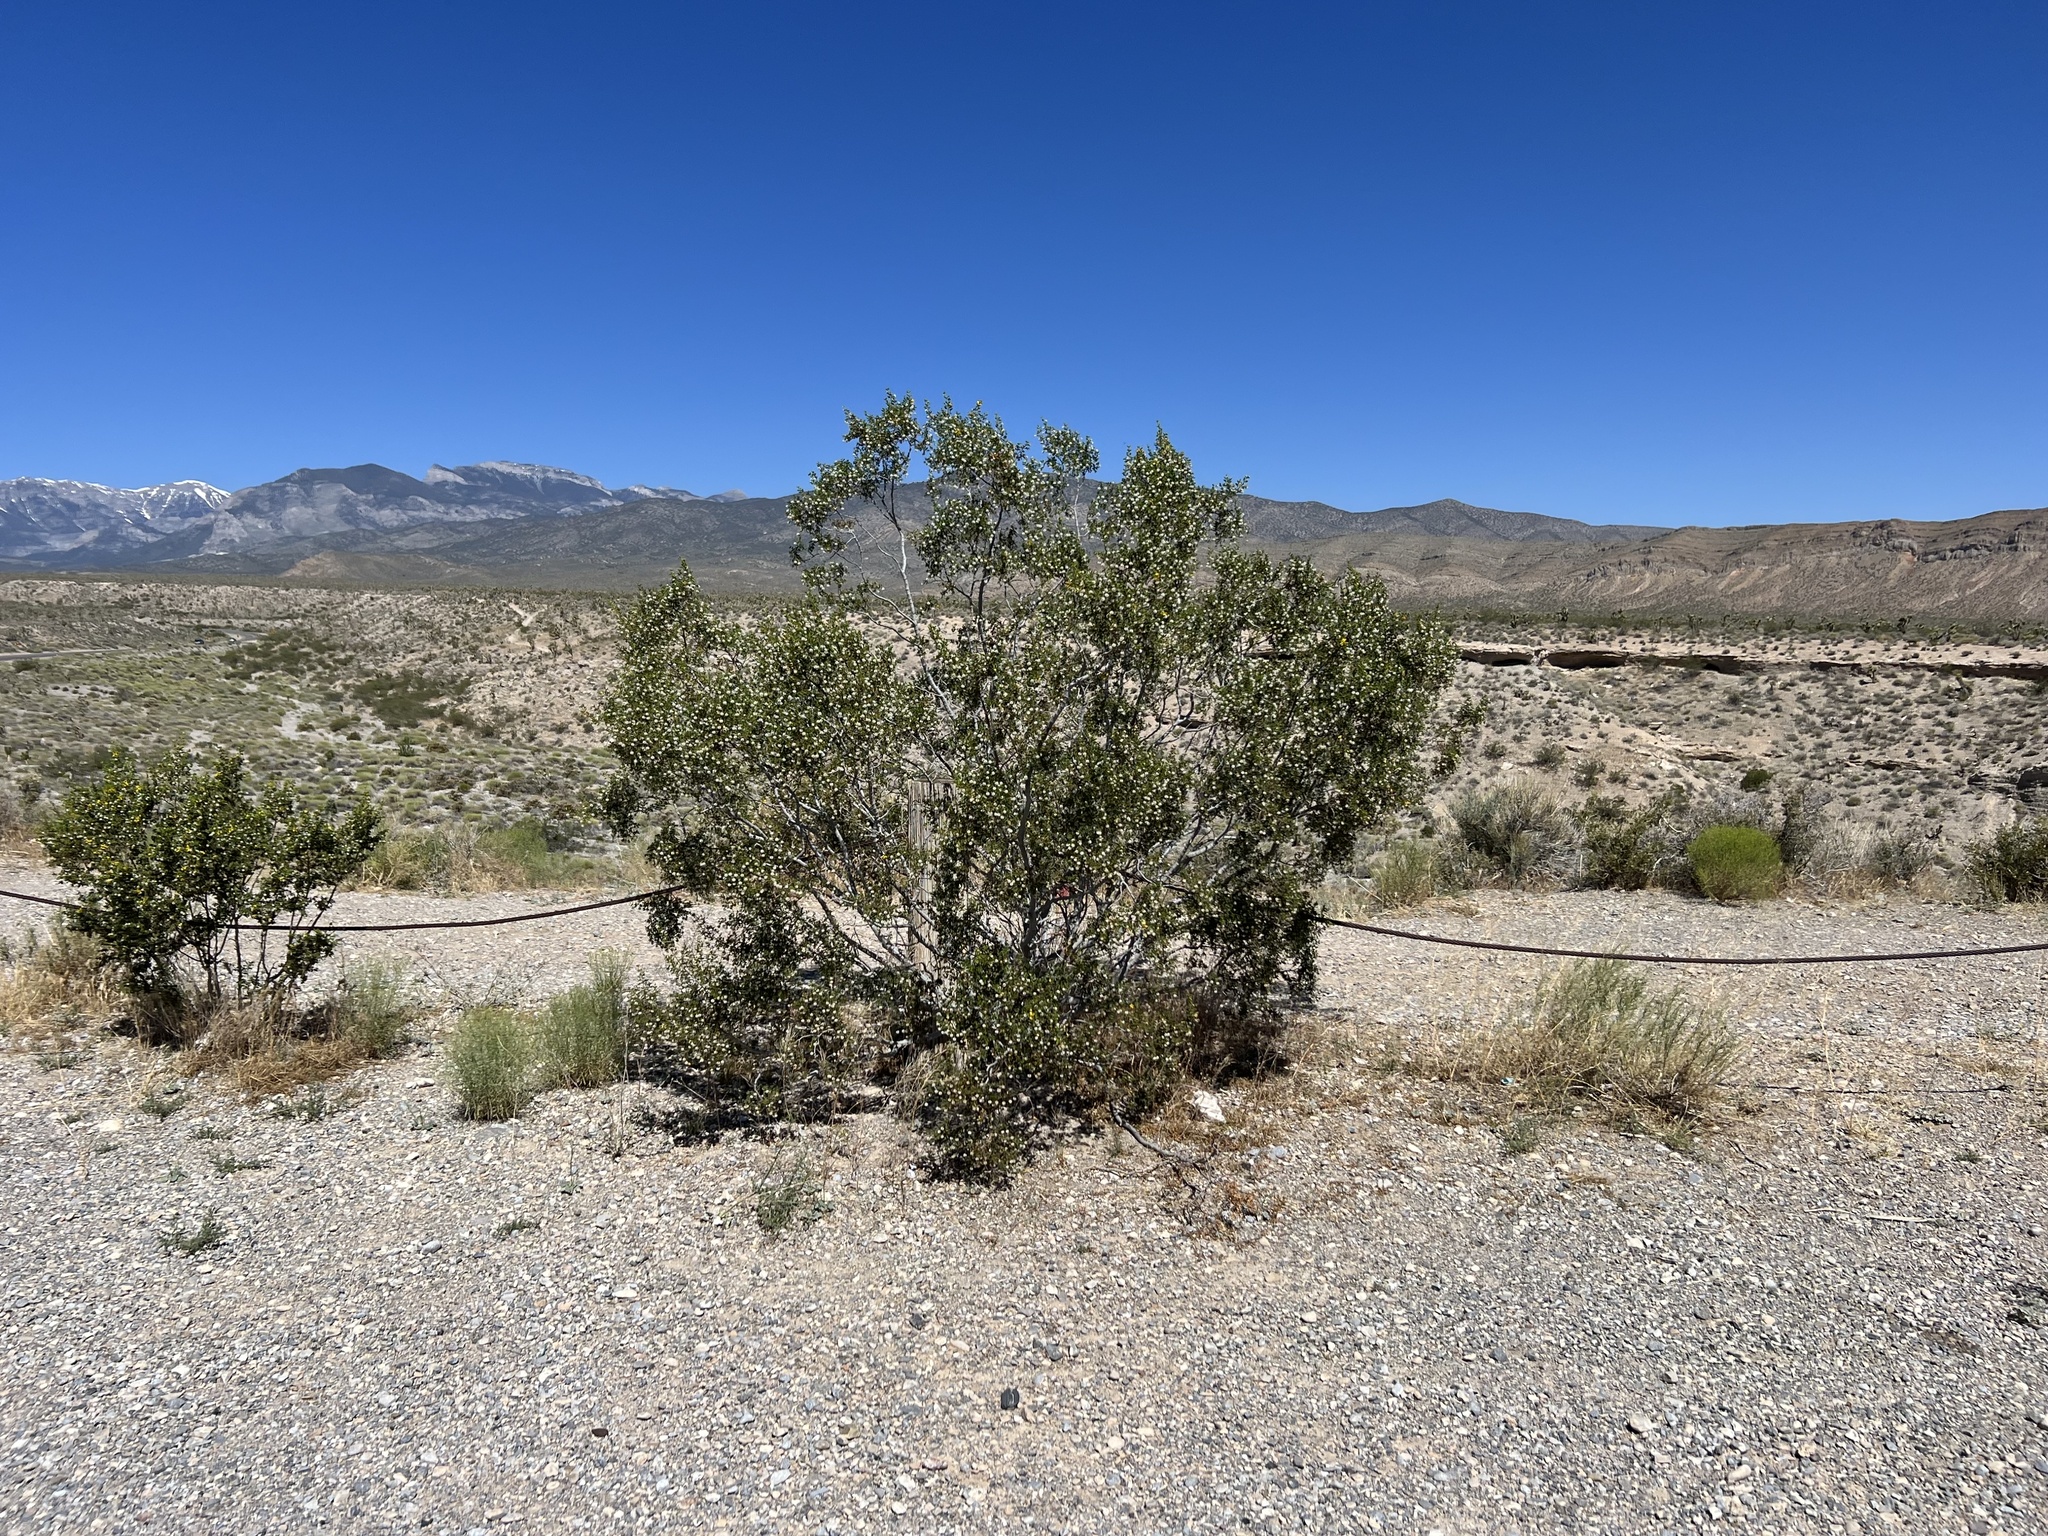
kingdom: Plantae
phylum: Tracheophyta
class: Magnoliopsida
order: Zygophyllales
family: Zygophyllaceae
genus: Larrea
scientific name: Larrea tridentata
